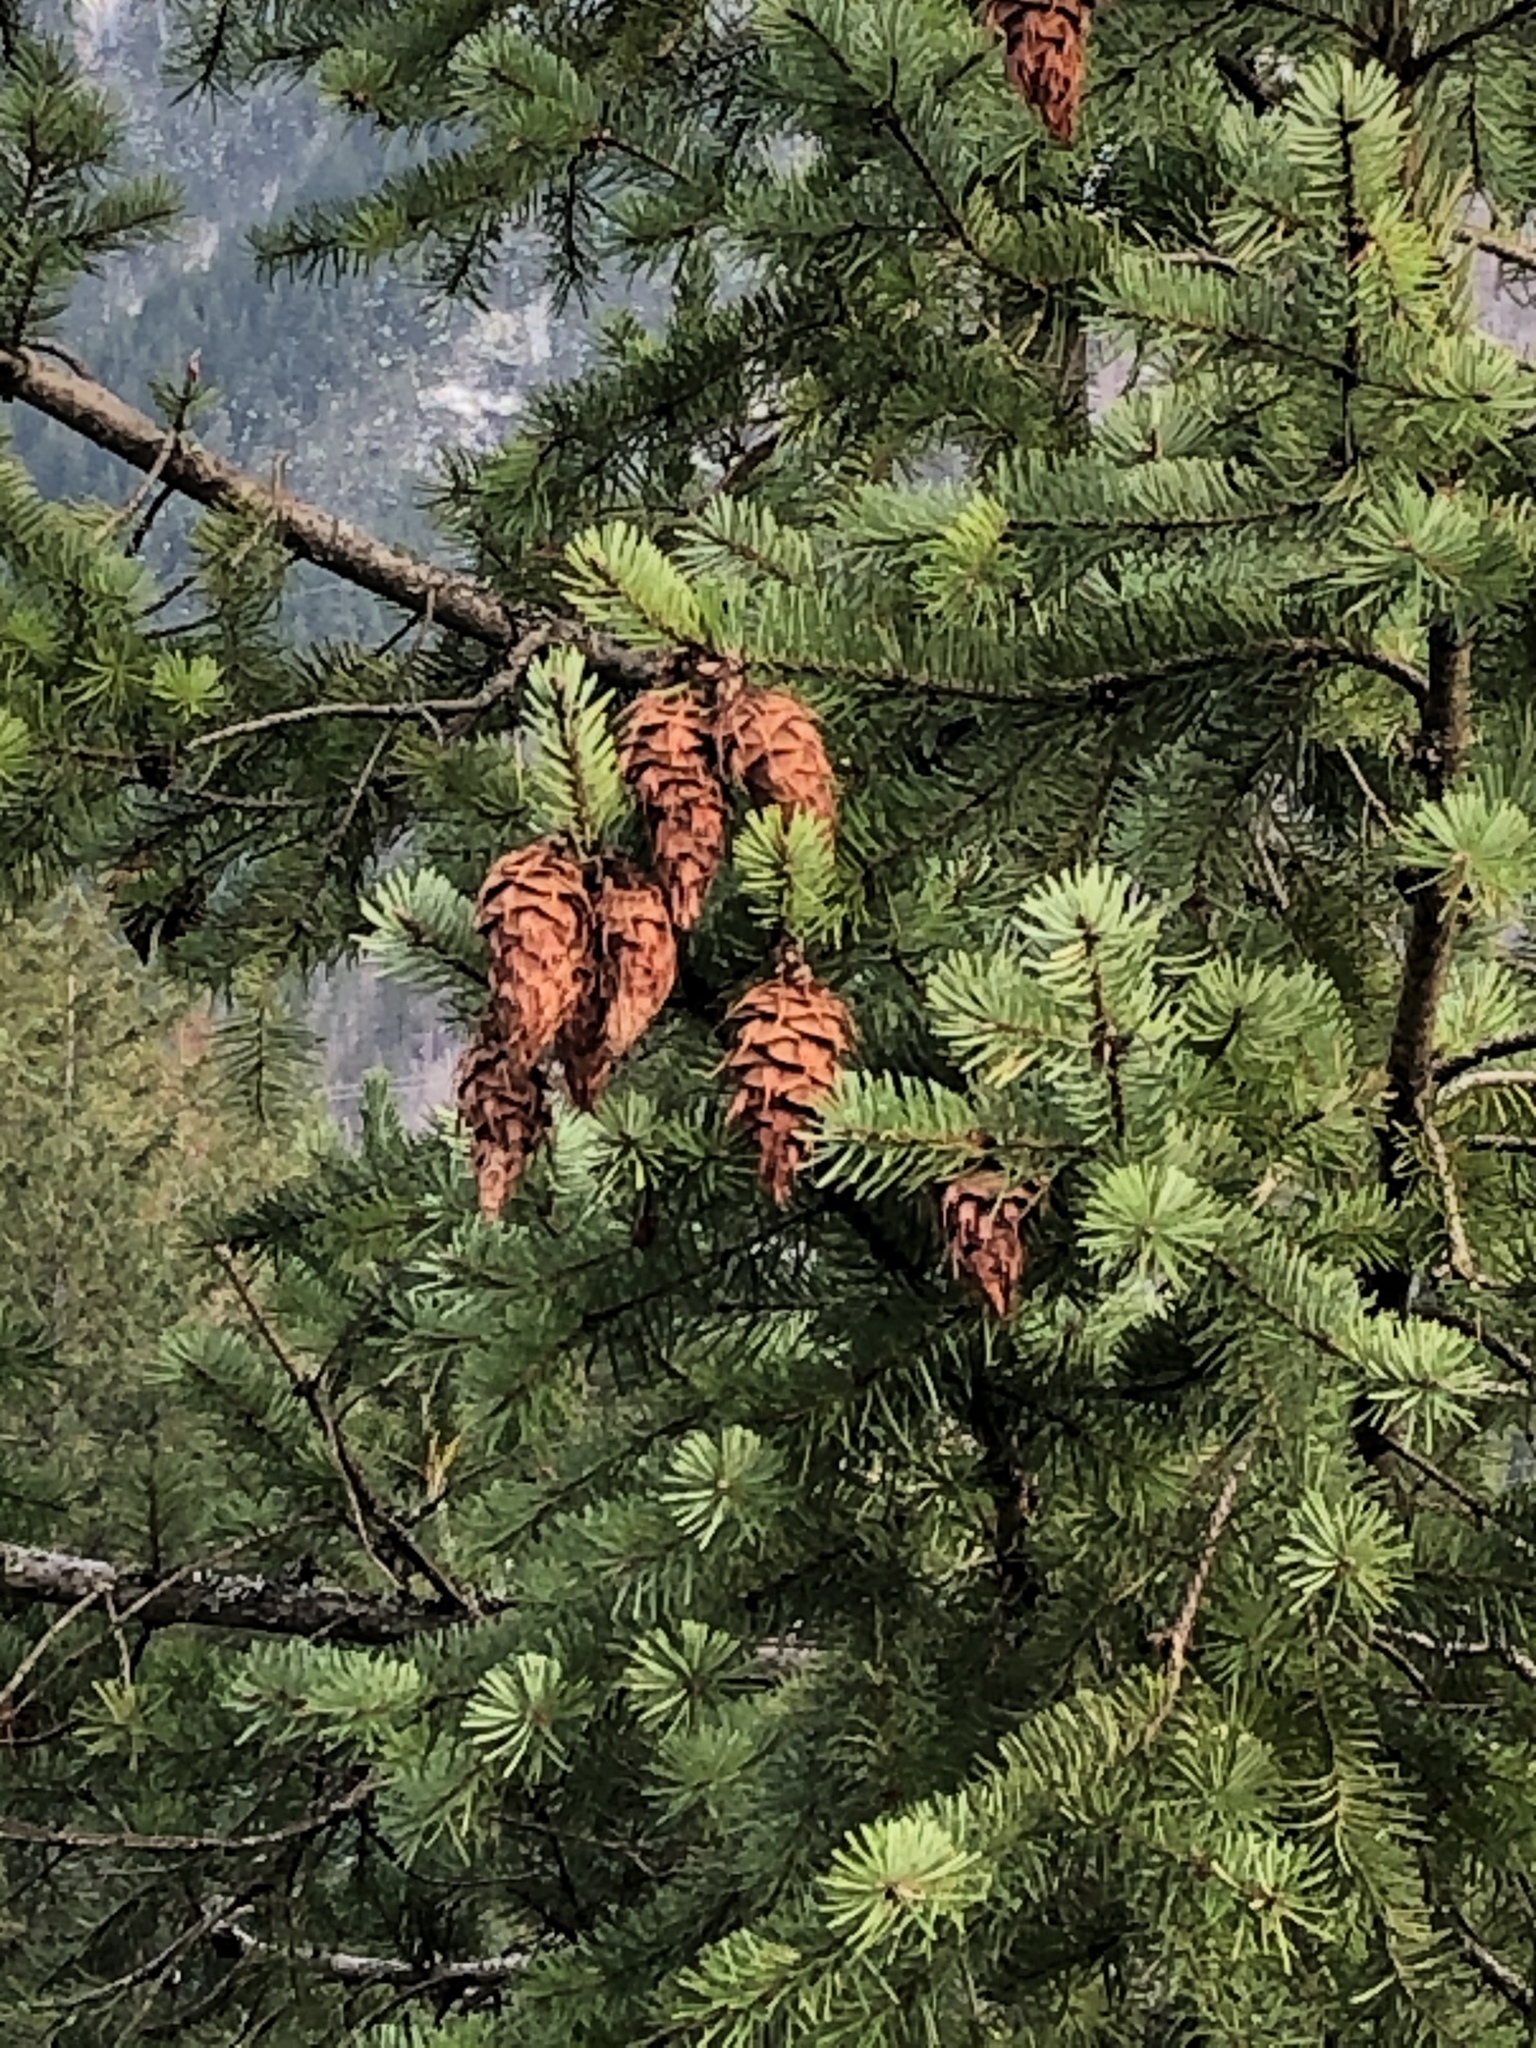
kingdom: Plantae
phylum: Tracheophyta
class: Pinopsida
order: Pinales
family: Pinaceae
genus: Pseudotsuga
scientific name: Pseudotsuga menziesii
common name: Douglas fir
